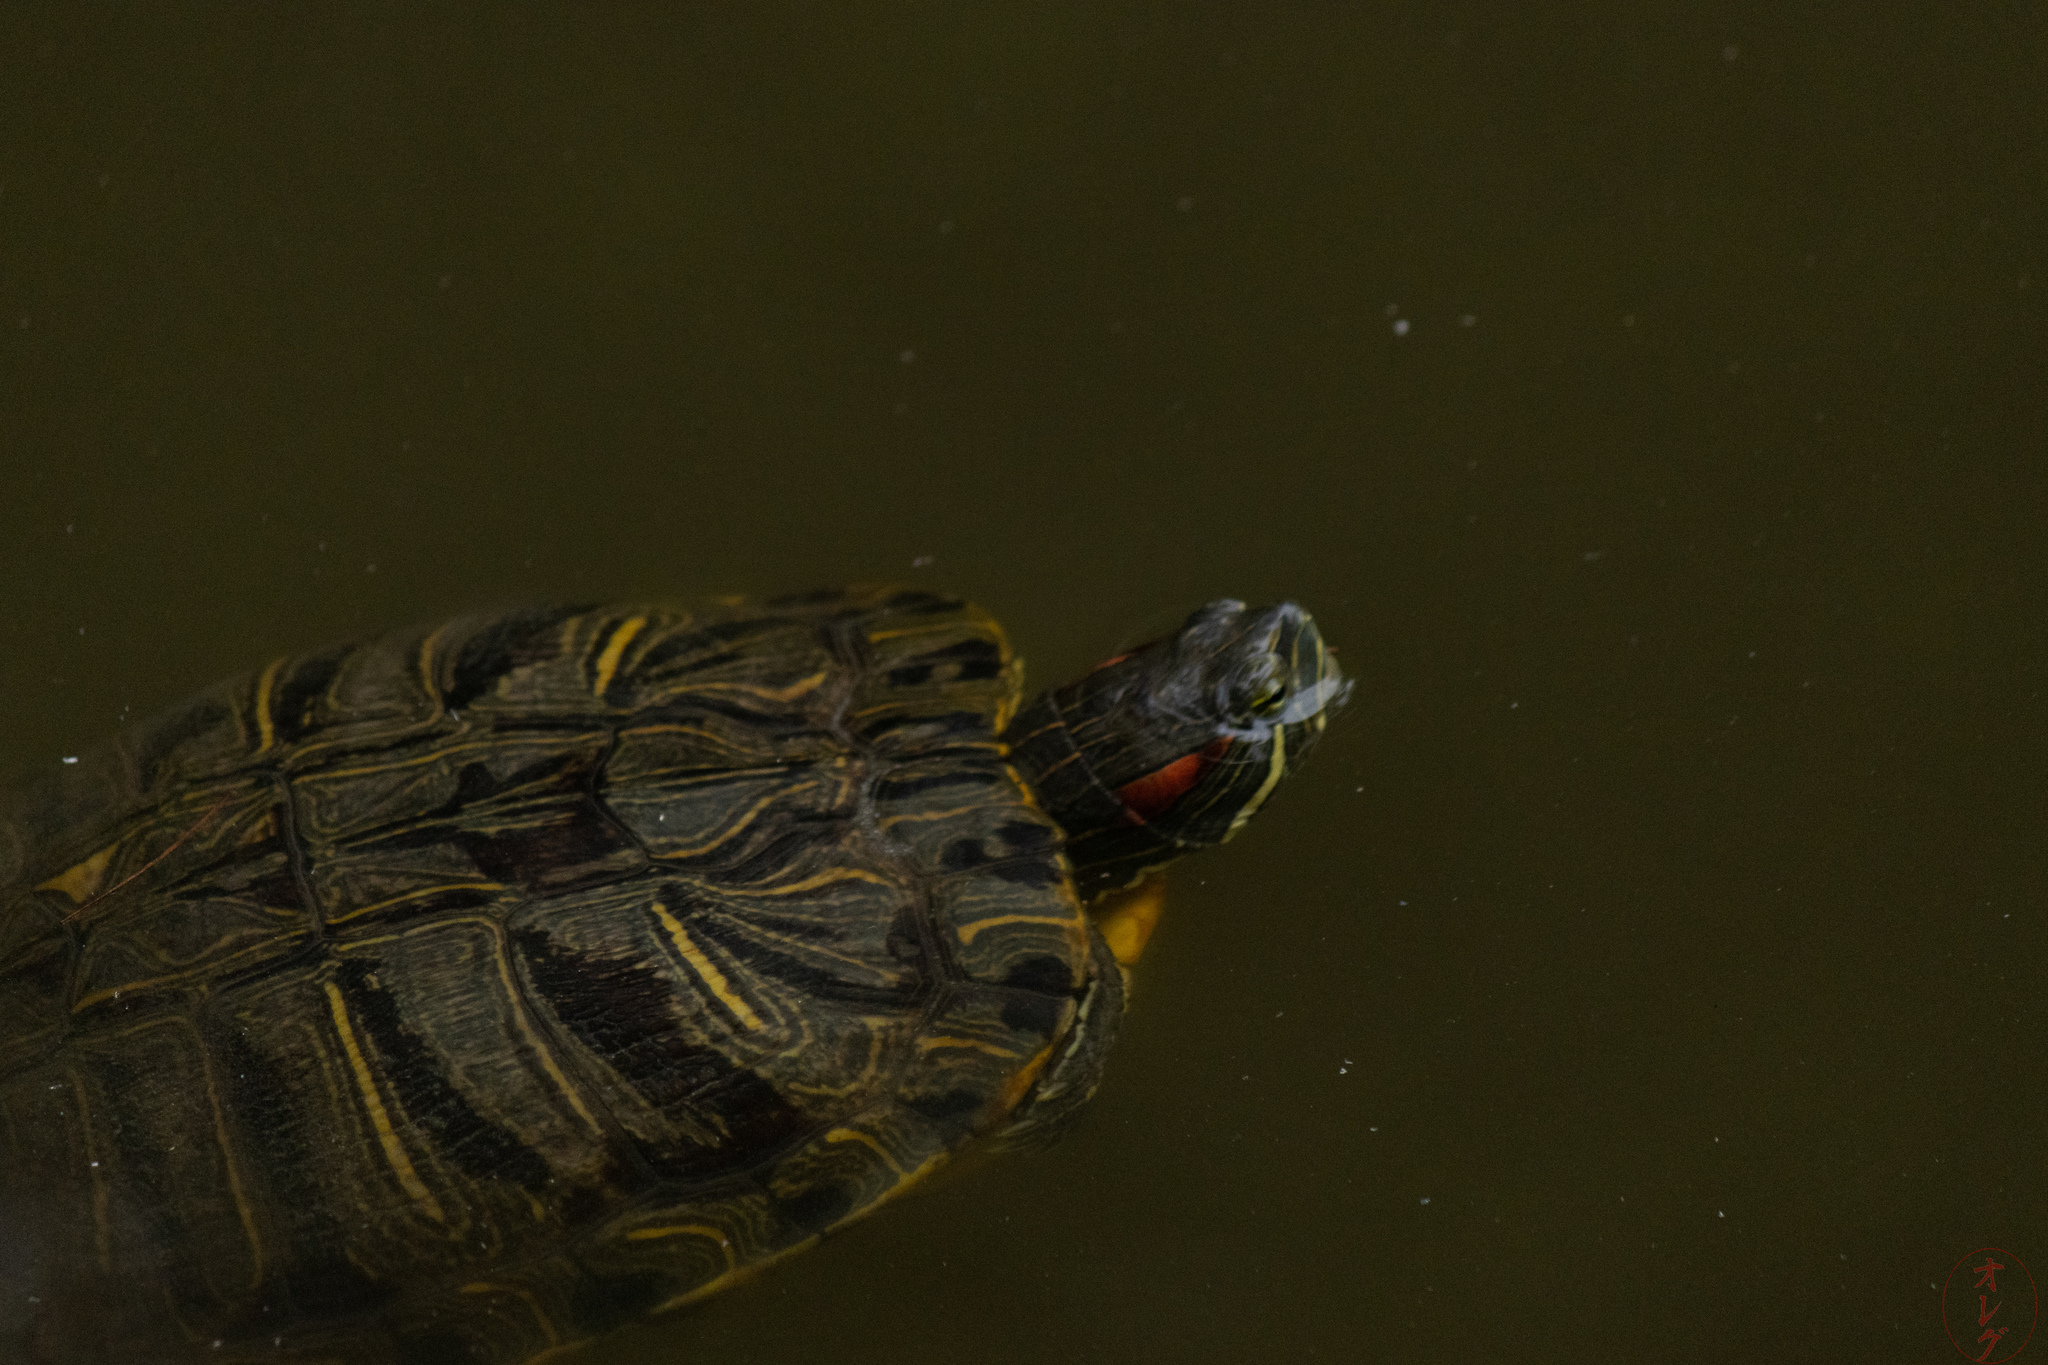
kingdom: Animalia
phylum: Chordata
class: Testudines
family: Emydidae
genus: Trachemys
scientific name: Trachemys scripta
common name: Slider
